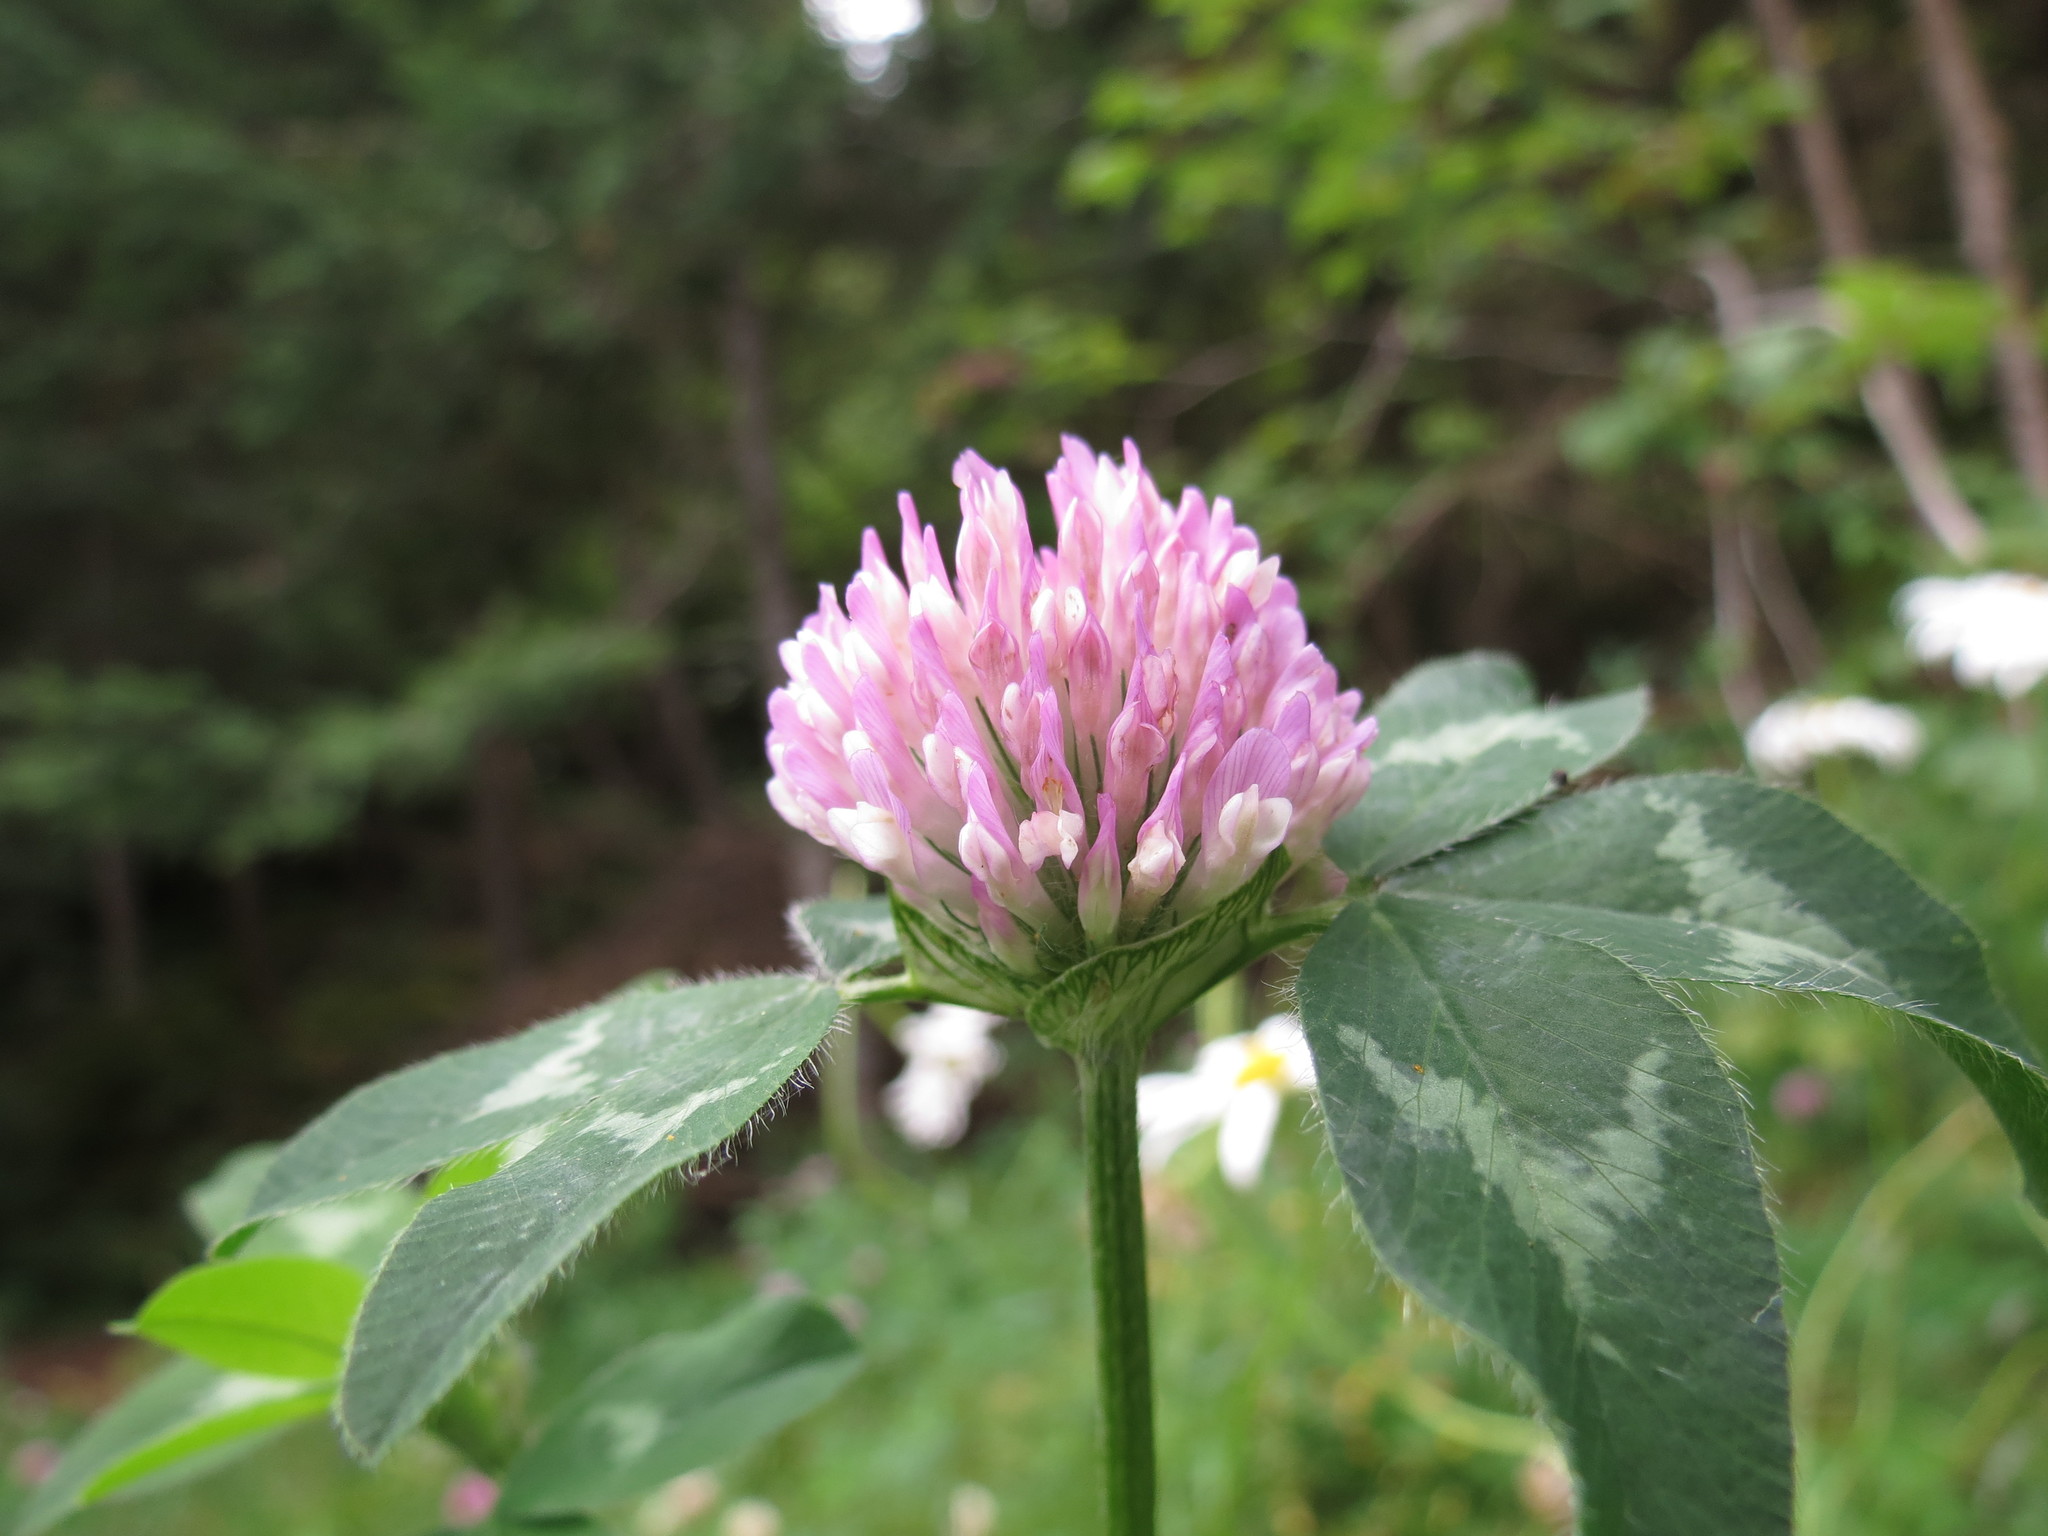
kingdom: Plantae
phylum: Tracheophyta
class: Magnoliopsida
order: Fabales
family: Fabaceae
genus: Trifolium
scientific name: Trifolium pratense
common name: Red clover
